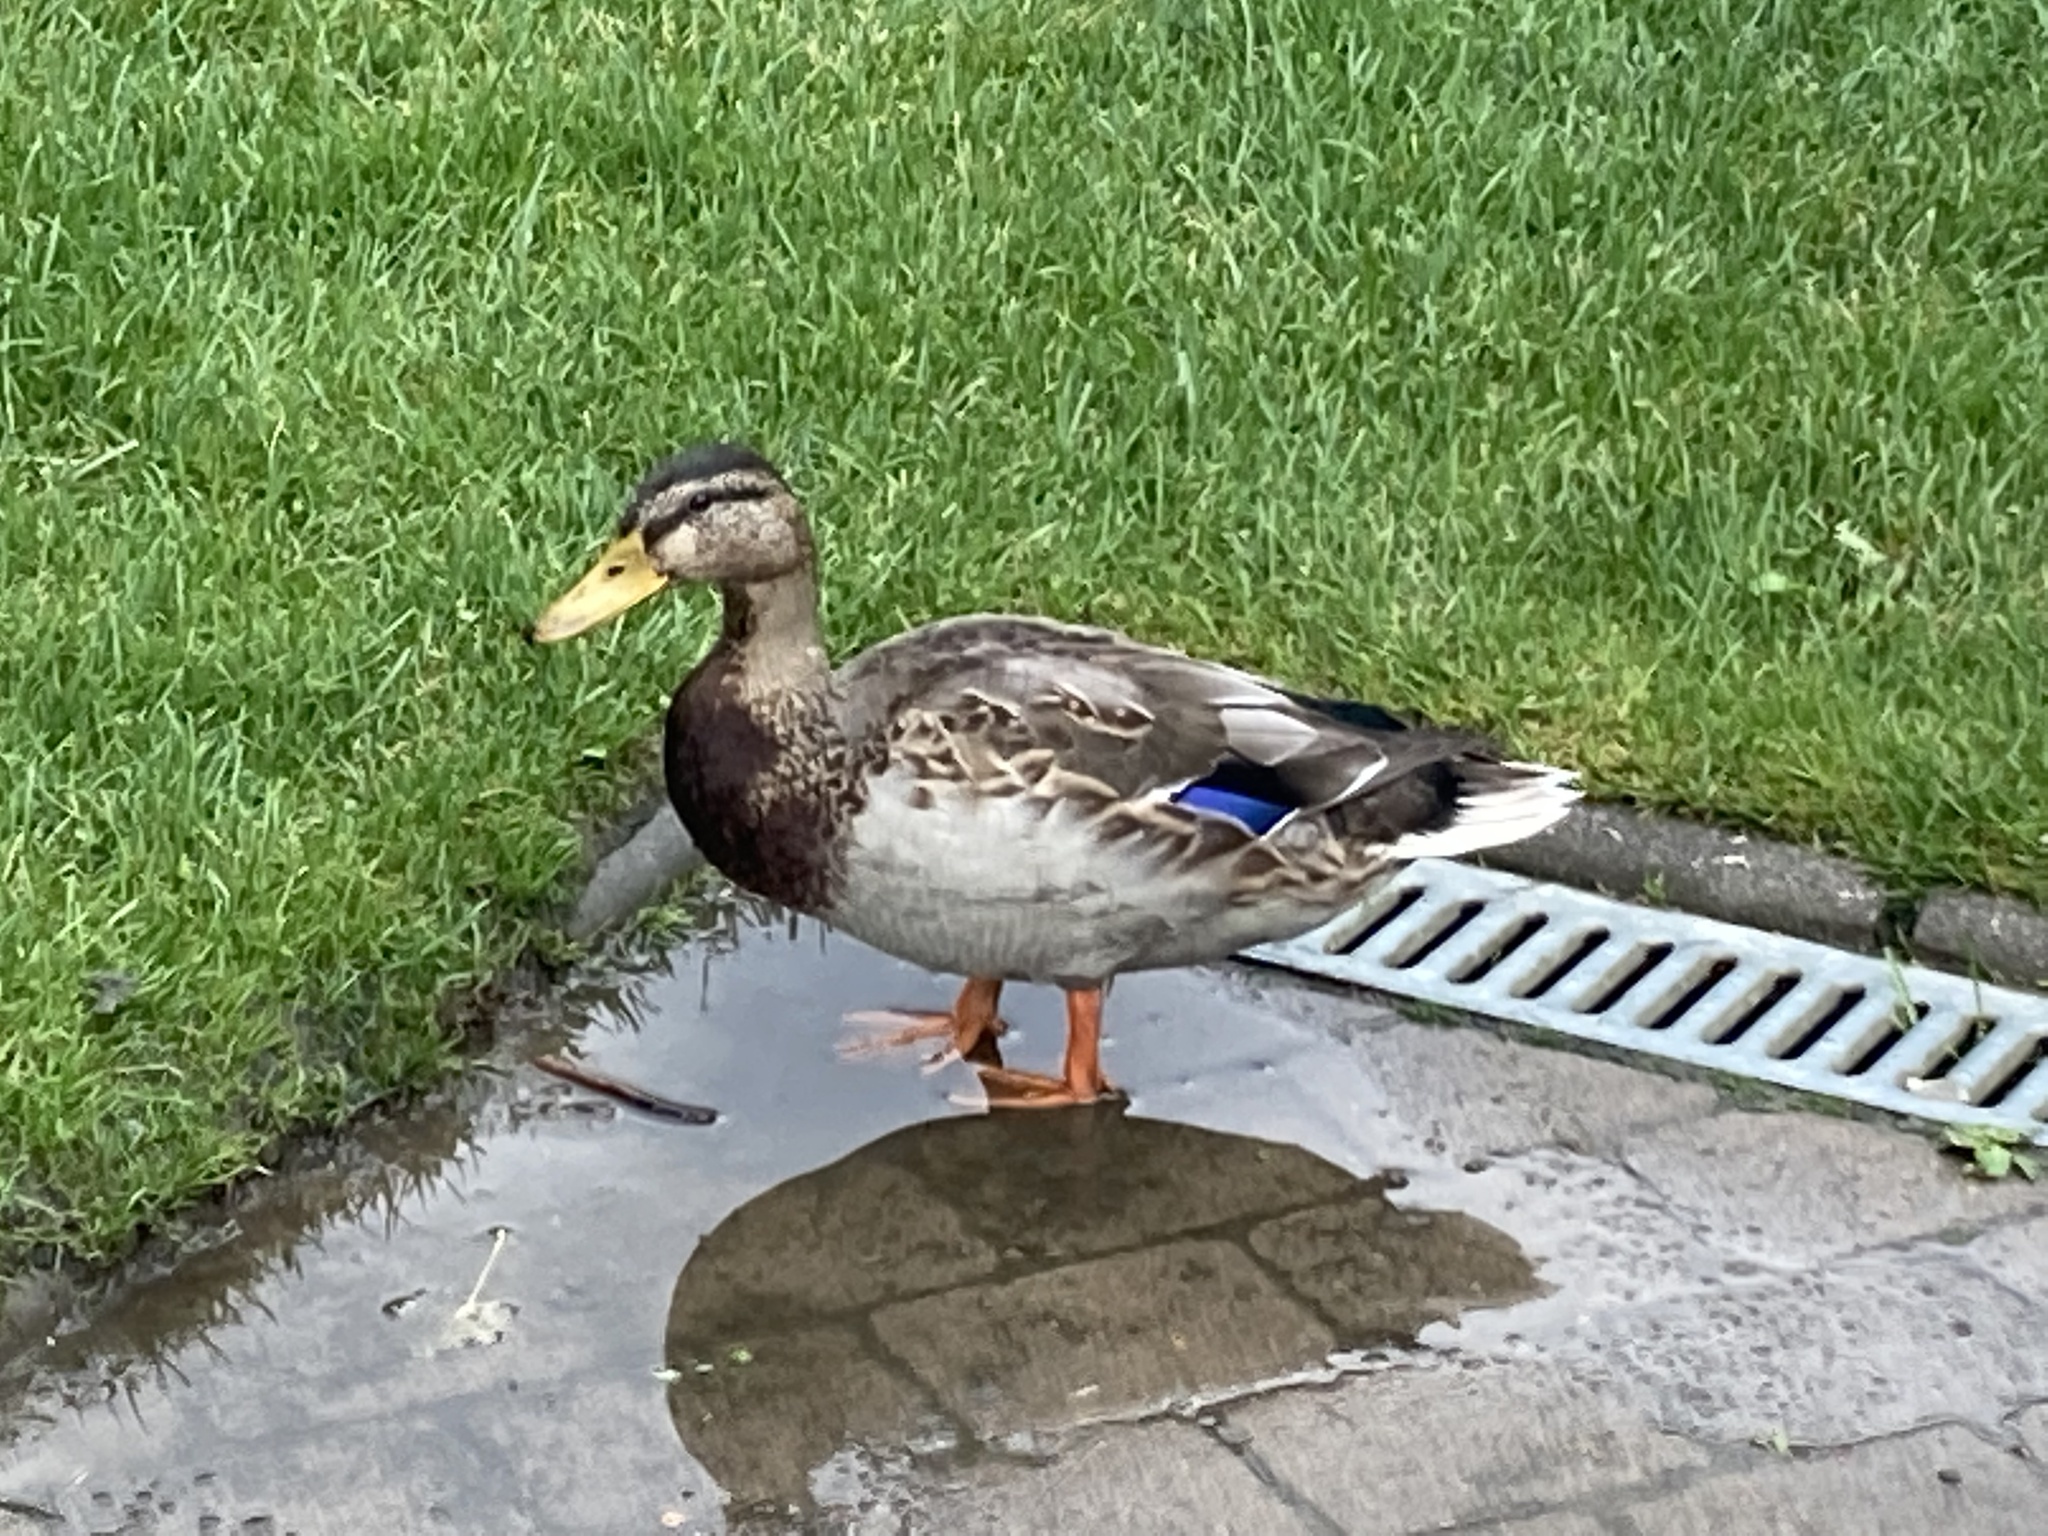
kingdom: Animalia
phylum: Chordata
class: Aves
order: Anseriformes
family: Anatidae
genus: Anas
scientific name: Anas platyrhynchos
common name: Mallard
